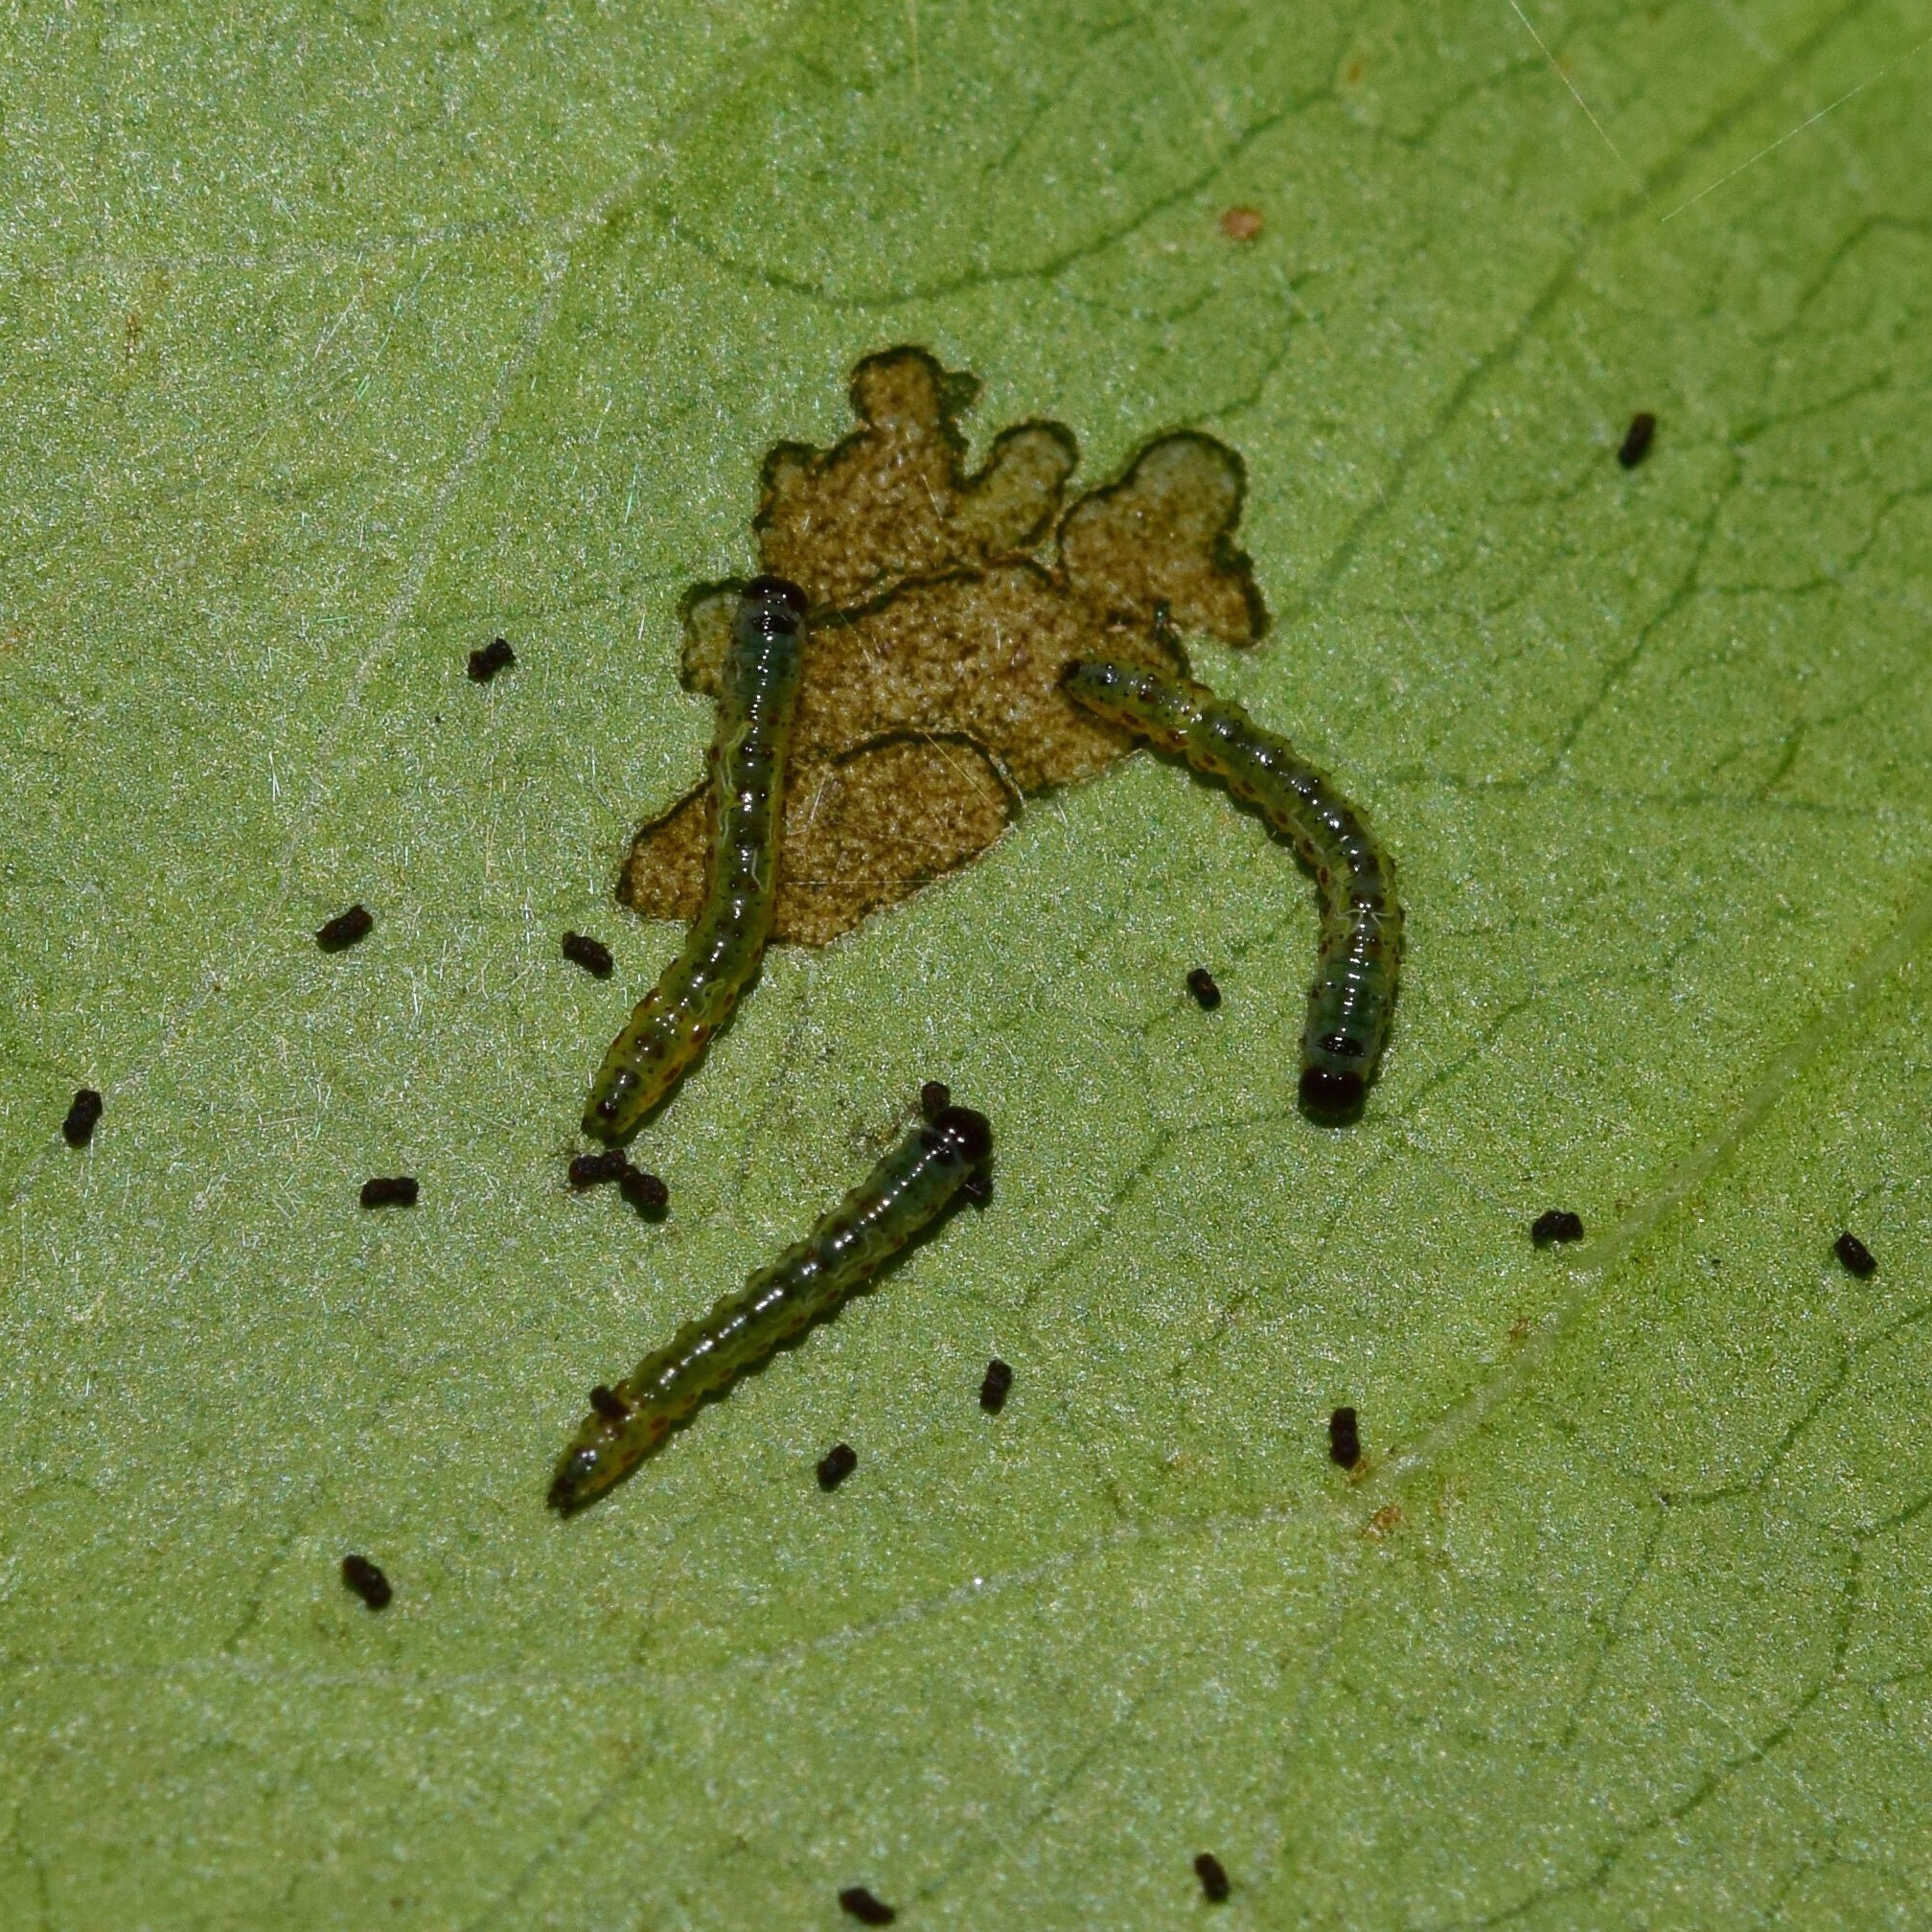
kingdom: Animalia
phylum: Arthropoda
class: Insecta
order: Lepidoptera
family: Notodontidae
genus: Rhenea
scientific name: Rhenea michii
